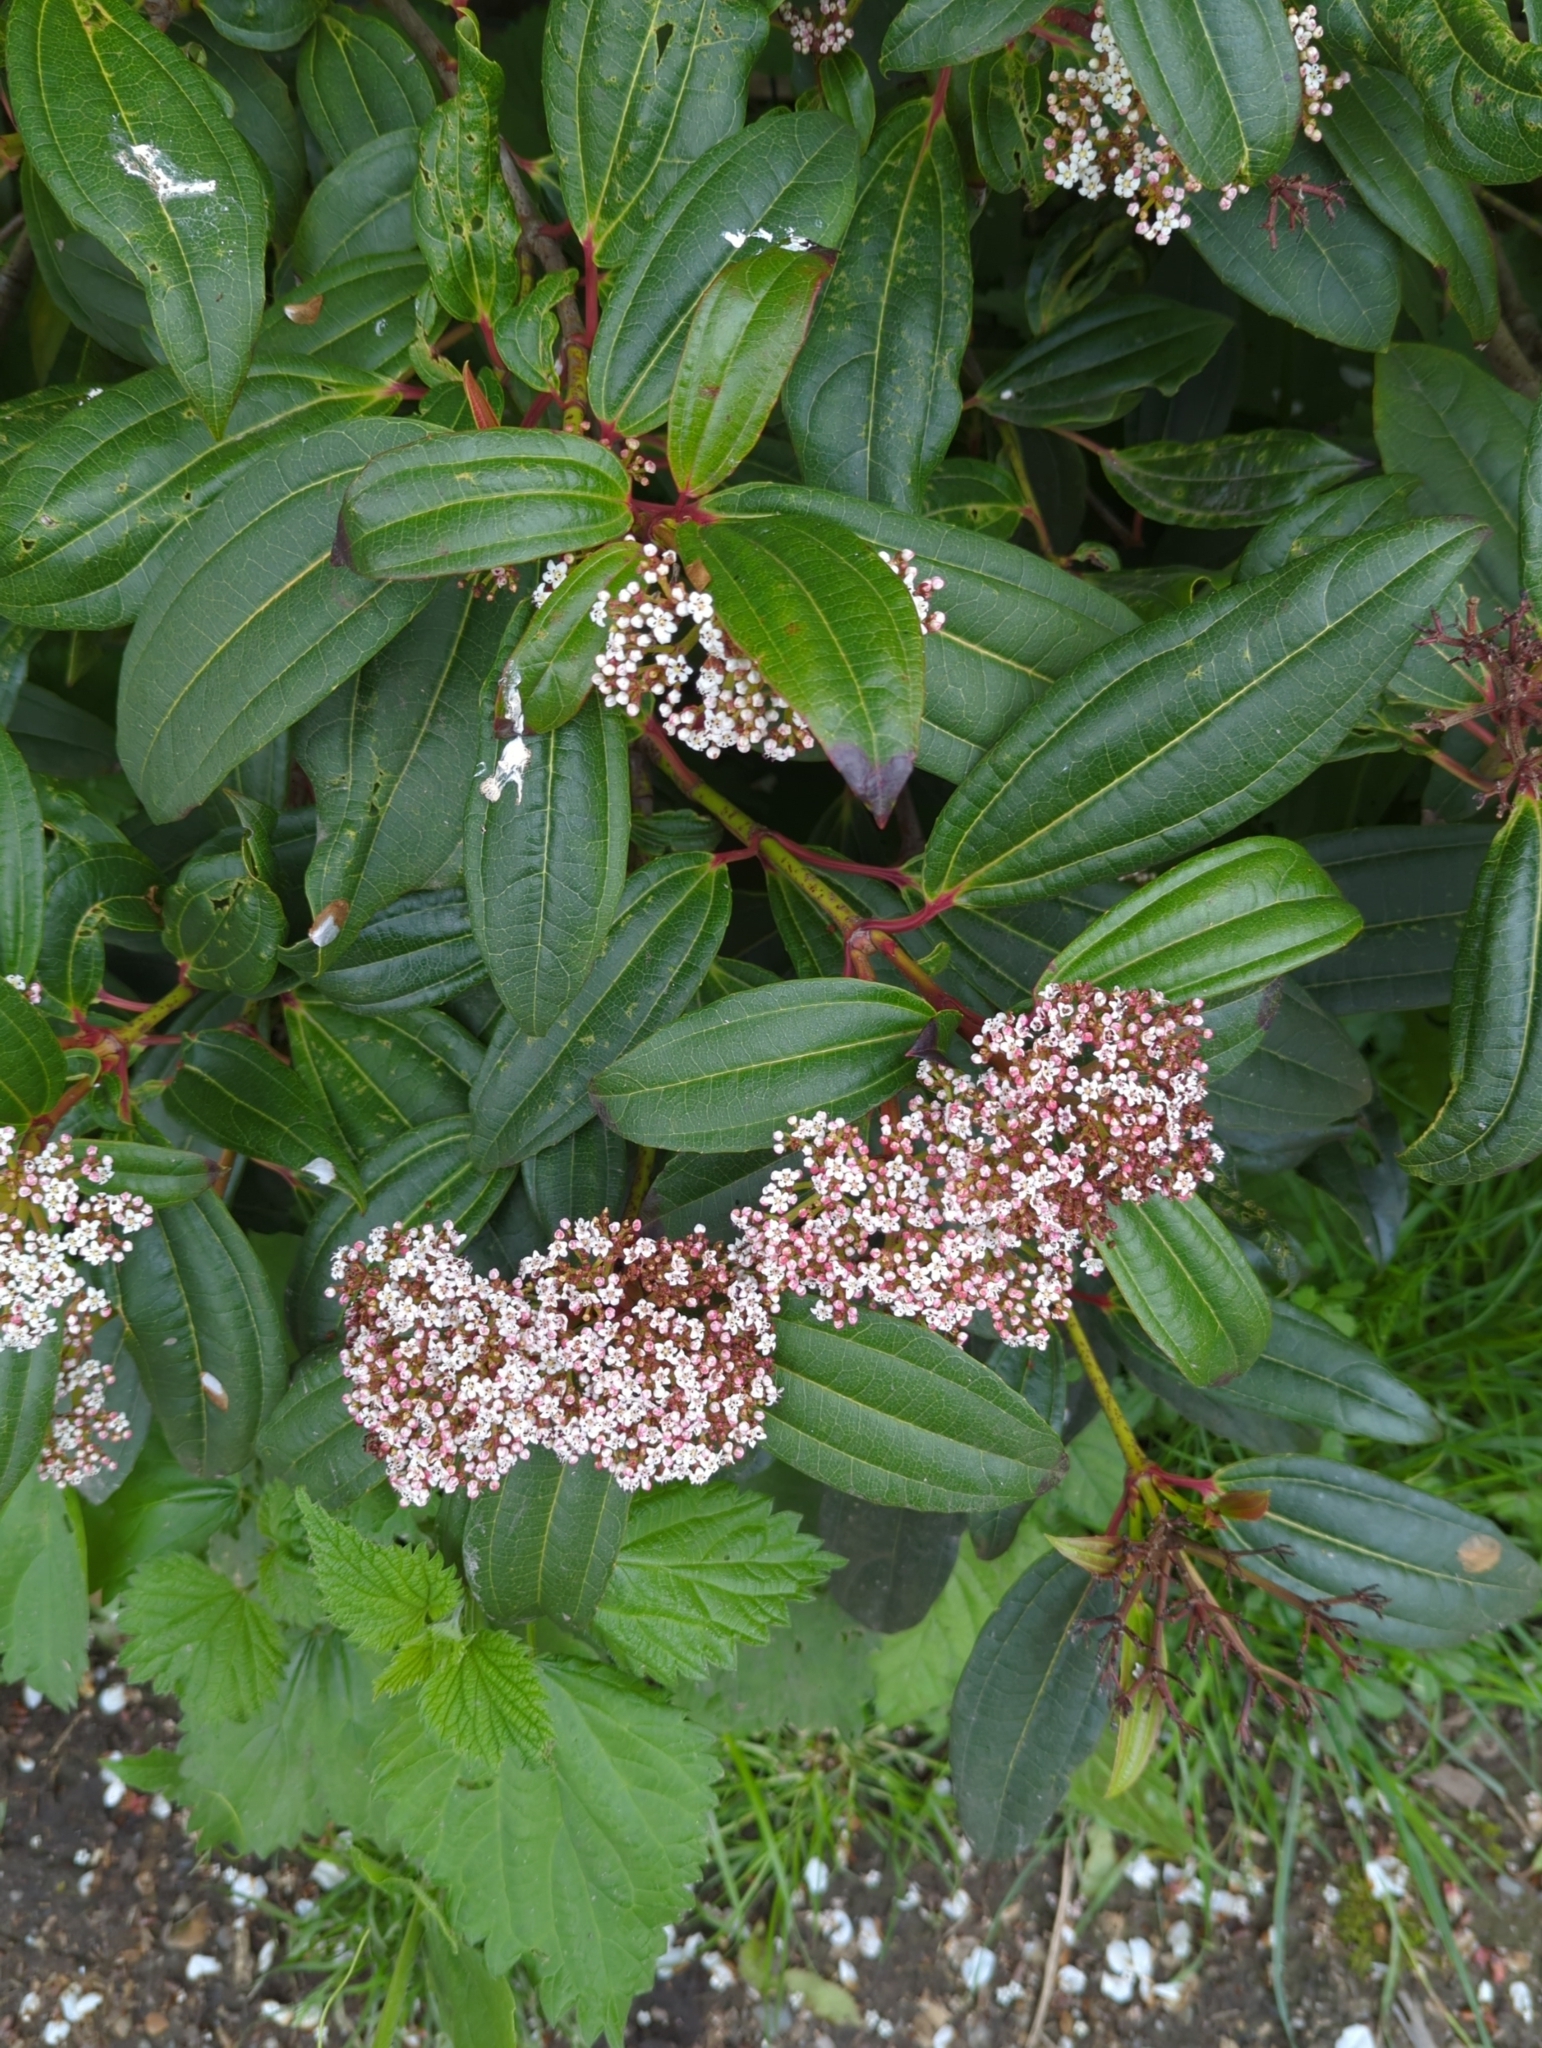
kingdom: Plantae
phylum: Tracheophyta
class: Magnoliopsida
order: Dipsacales
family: Viburnaceae
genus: Viburnum
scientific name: Viburnum davidi
